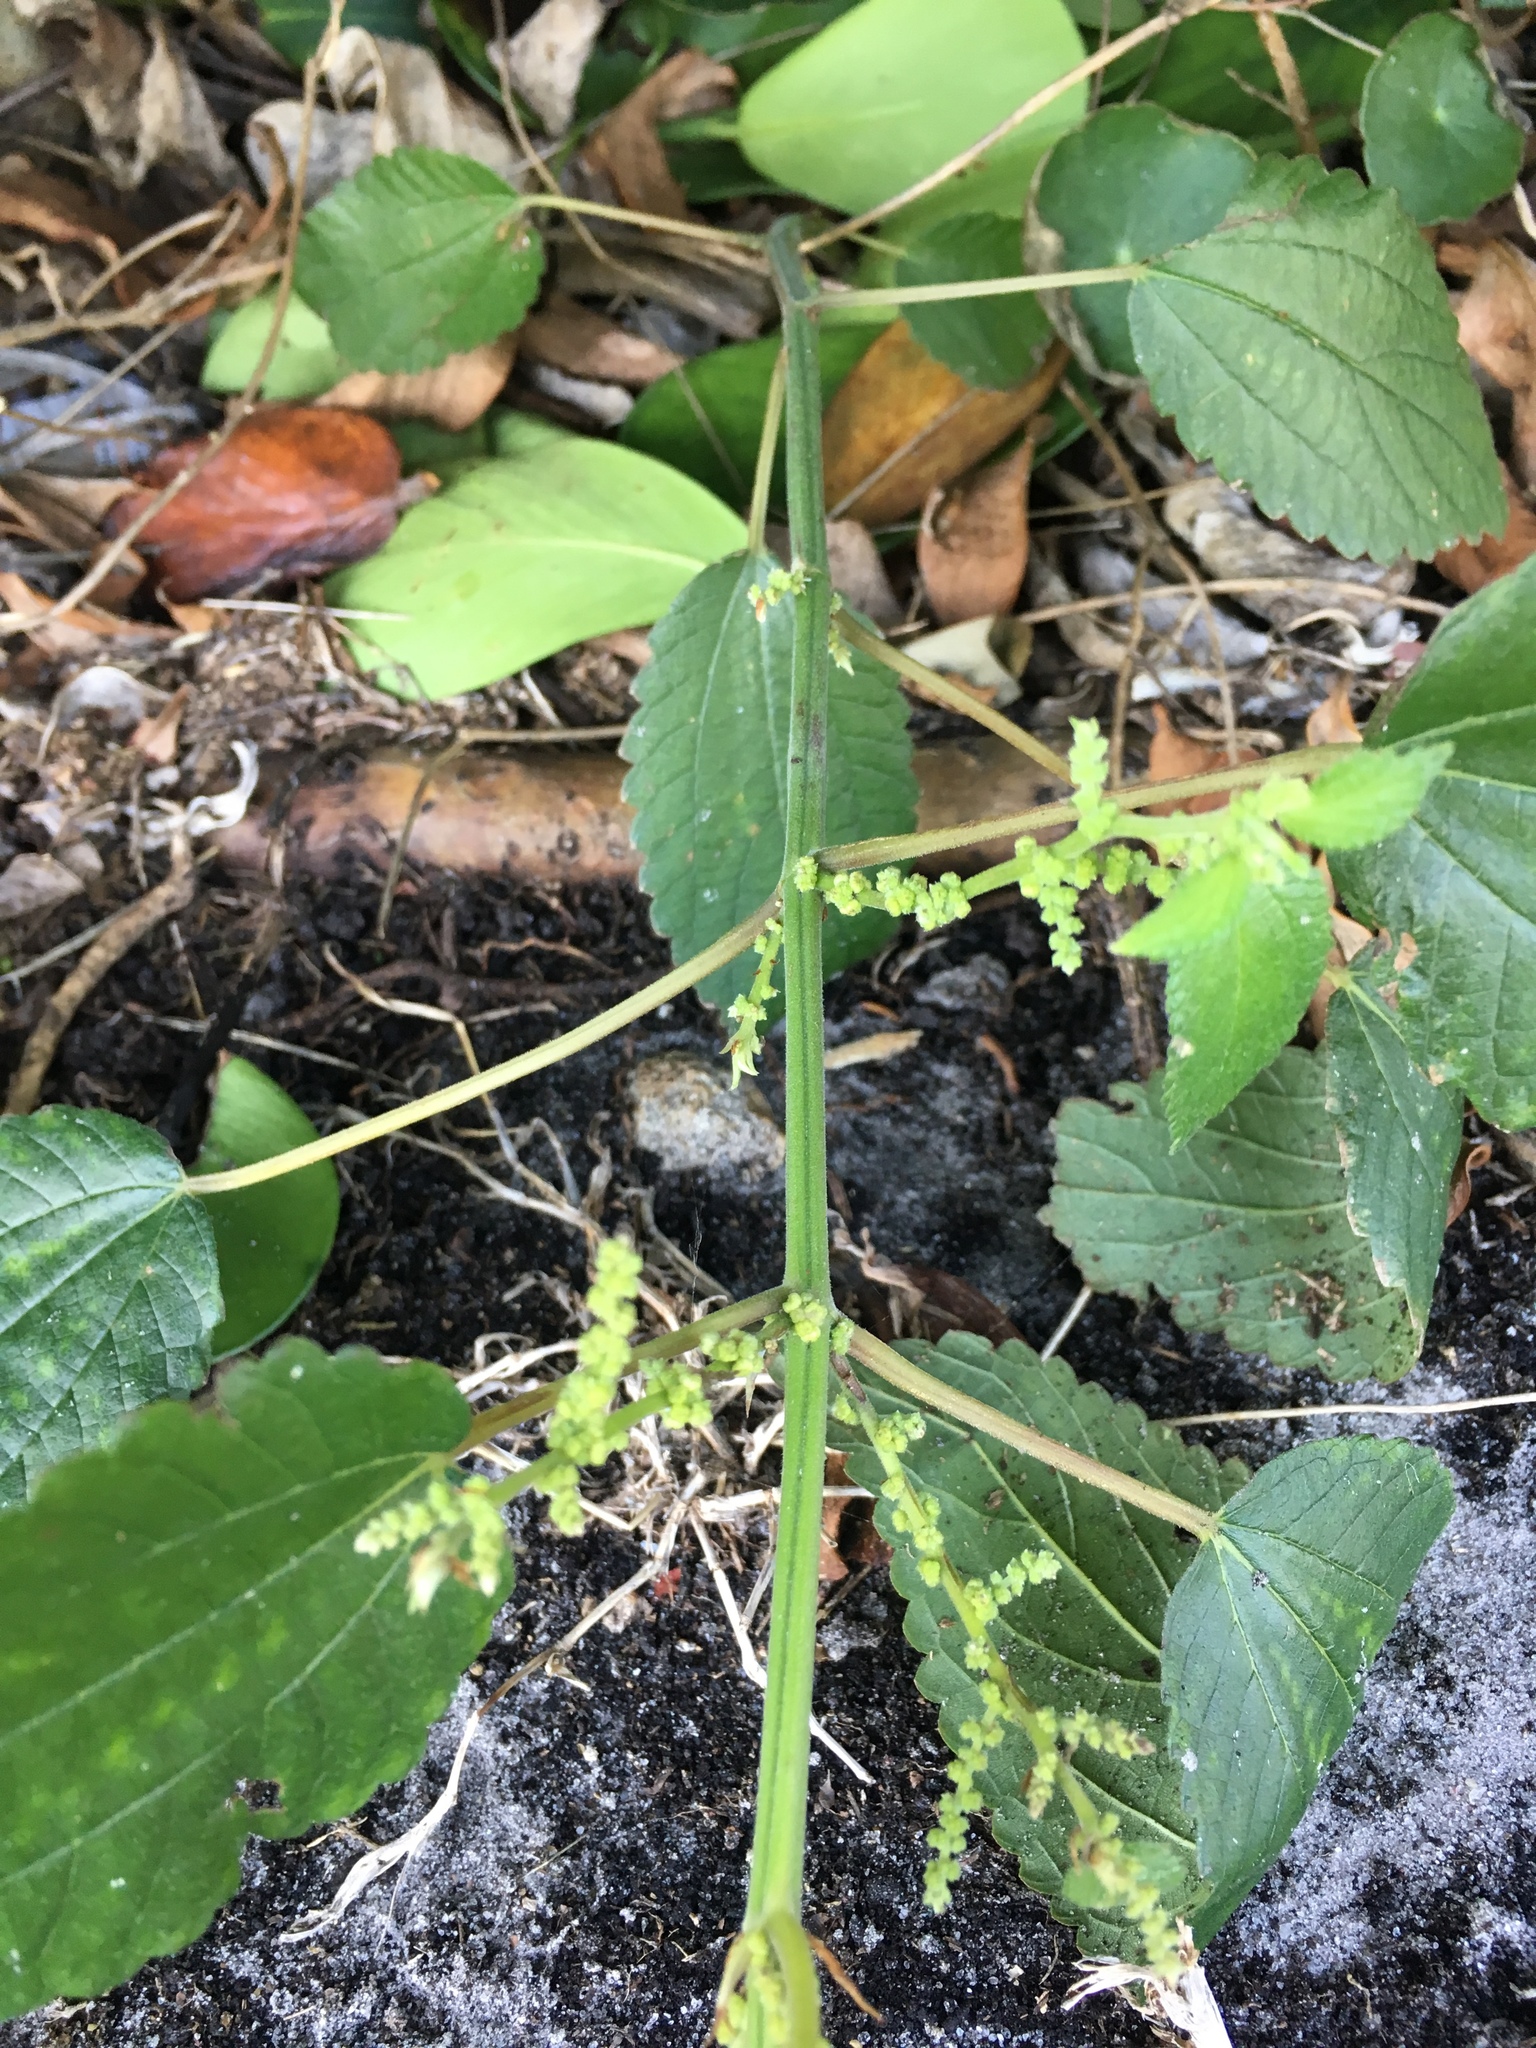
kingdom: Plantae
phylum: Tracheophyta
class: Magnoliopsida
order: Rosales
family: Urticaceae
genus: Boehmeria
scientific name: Boehmeria cylindrica
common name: Bog-hemp
